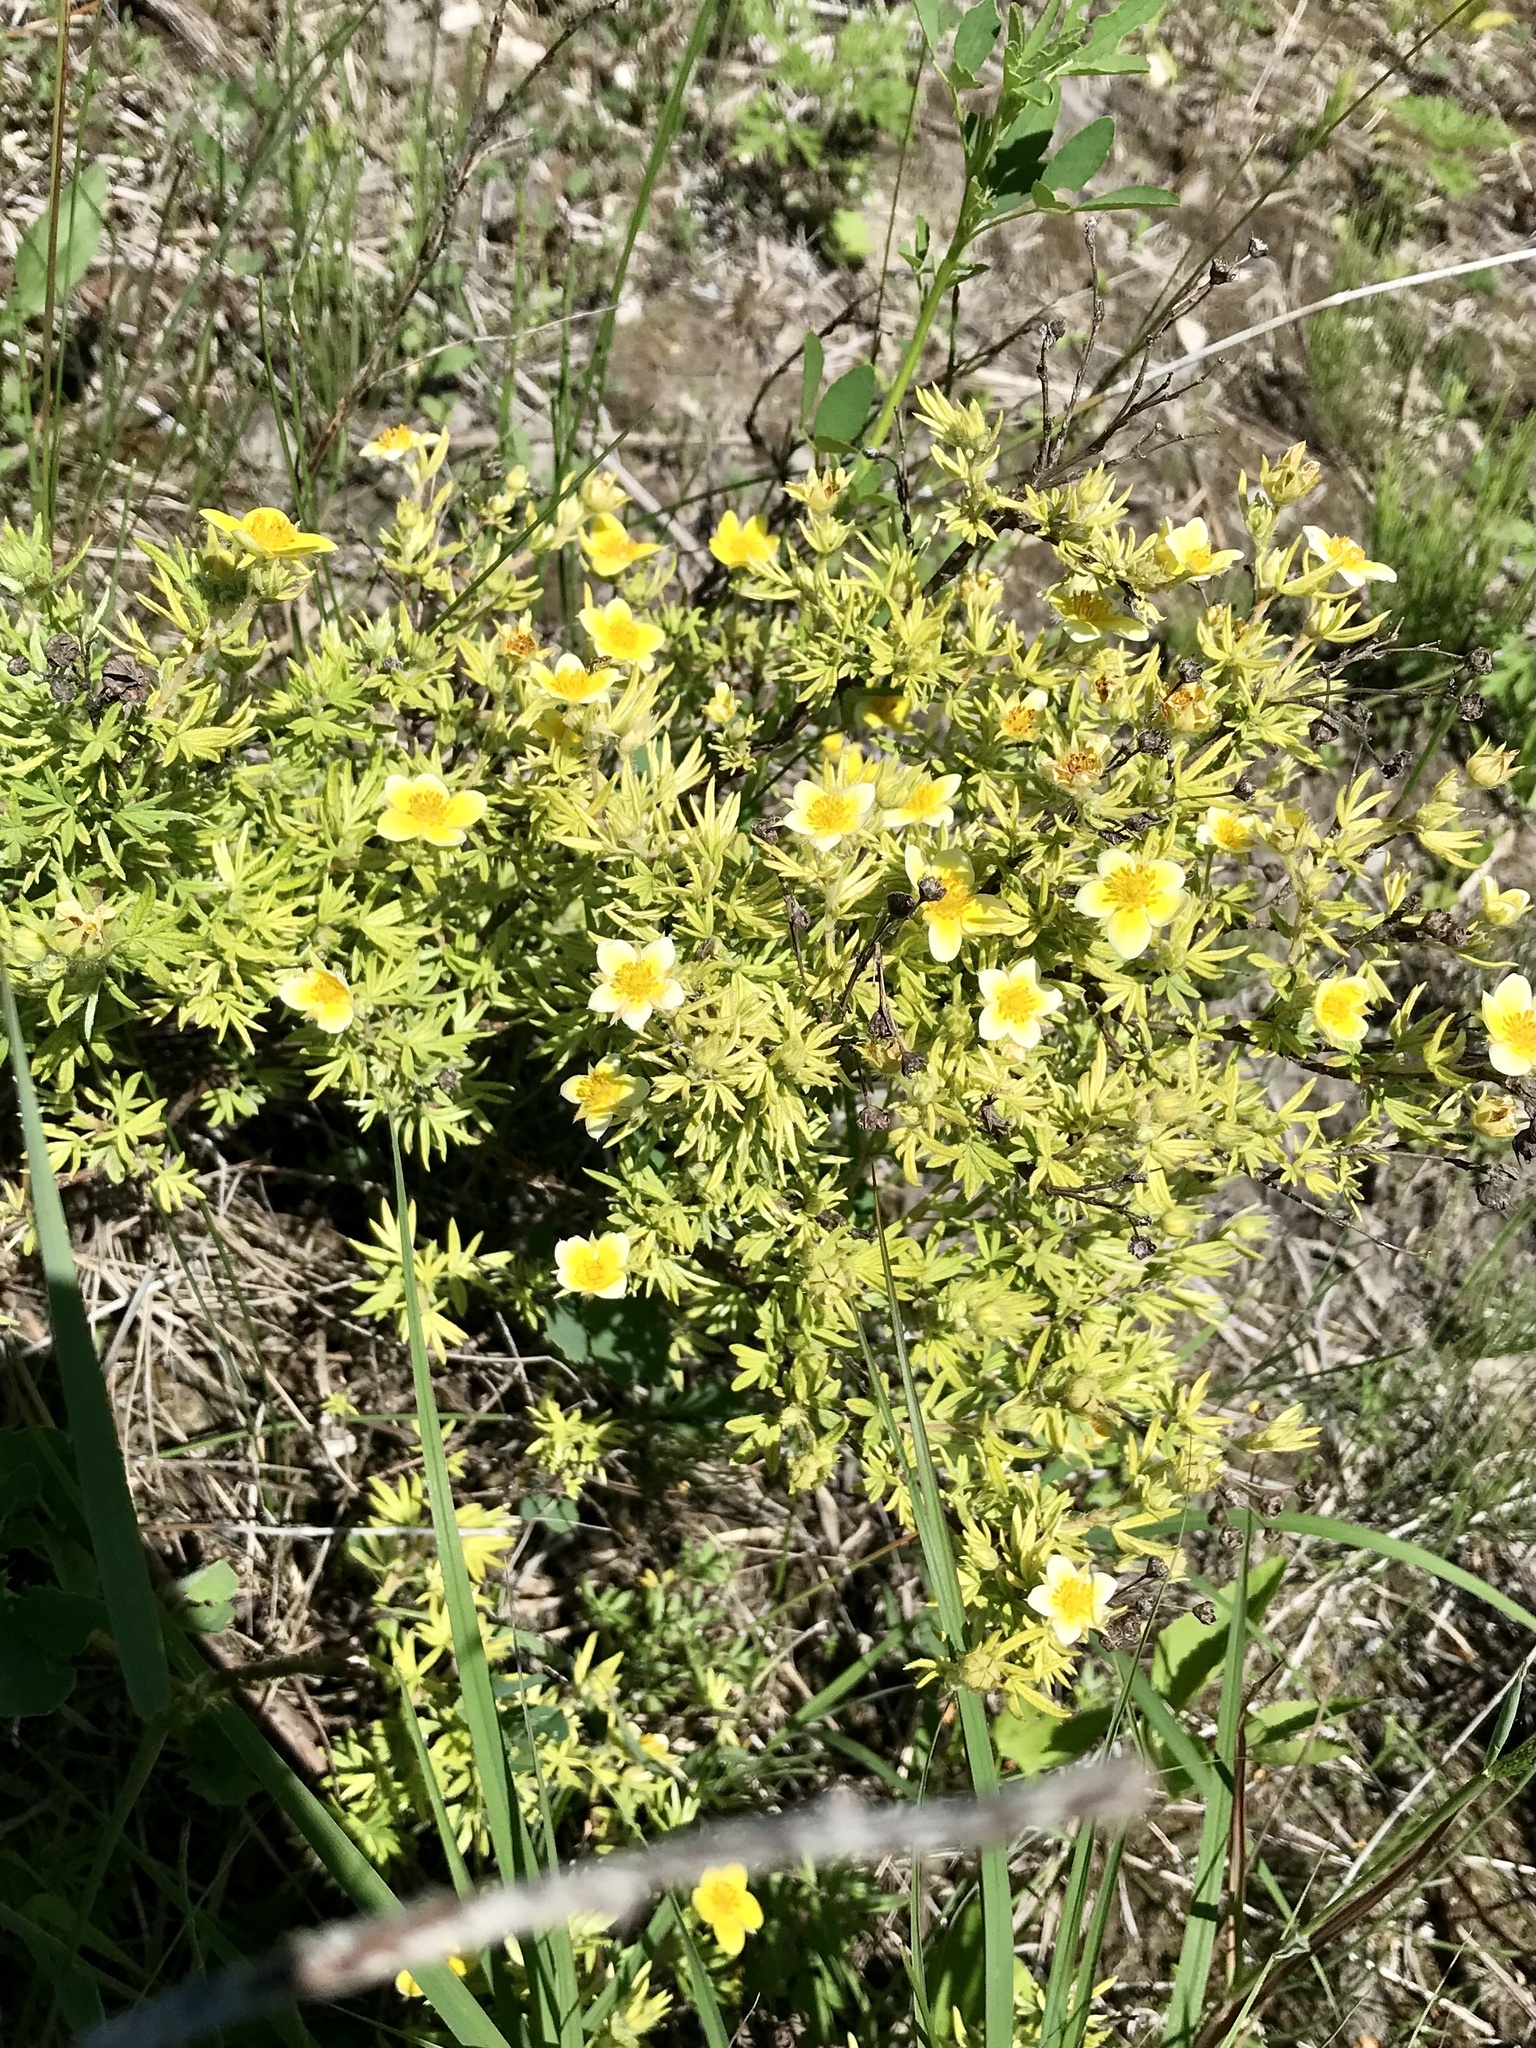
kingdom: Plantae
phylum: Tracheophyta
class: Magnoliopsida
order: Rosales
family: Rosaceae
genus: Dasiphora
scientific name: Dasiphora fruticosa
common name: Shrubby cinquefoil
